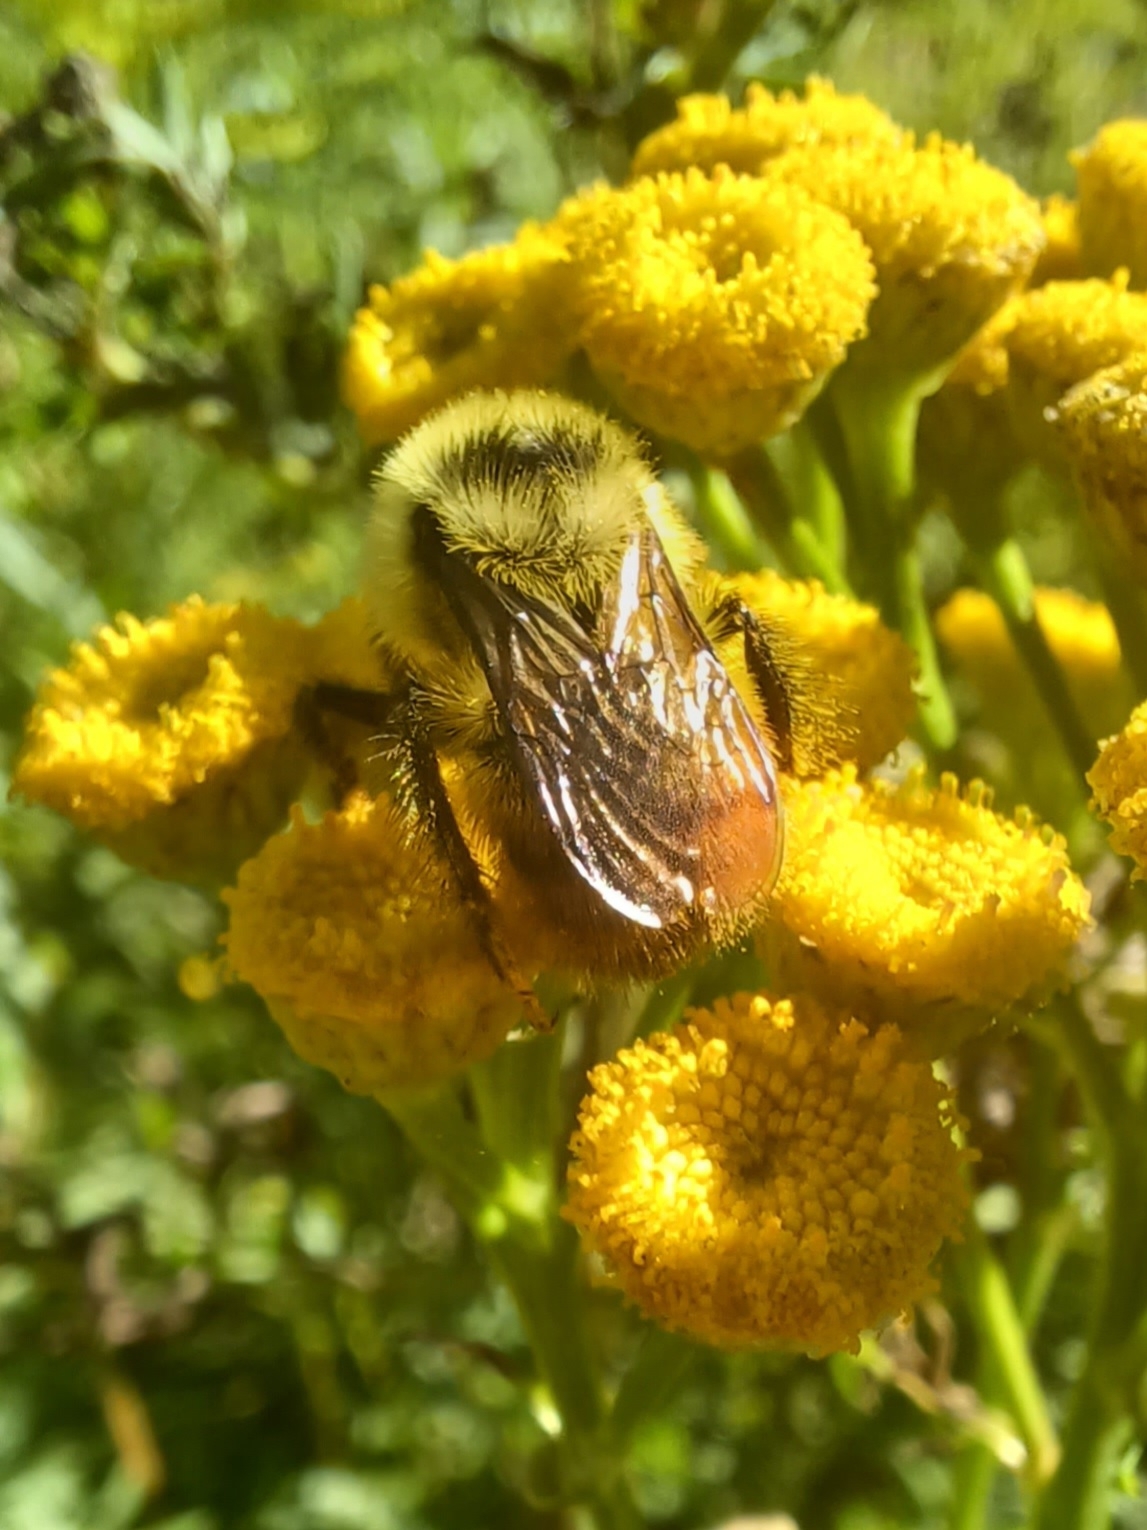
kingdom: Animalia
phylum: Arthropoda
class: Insecta
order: Hymenoptera
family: Apidae
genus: Bombus
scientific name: Bombus rufocinctus
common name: Red-belted bumble bee
